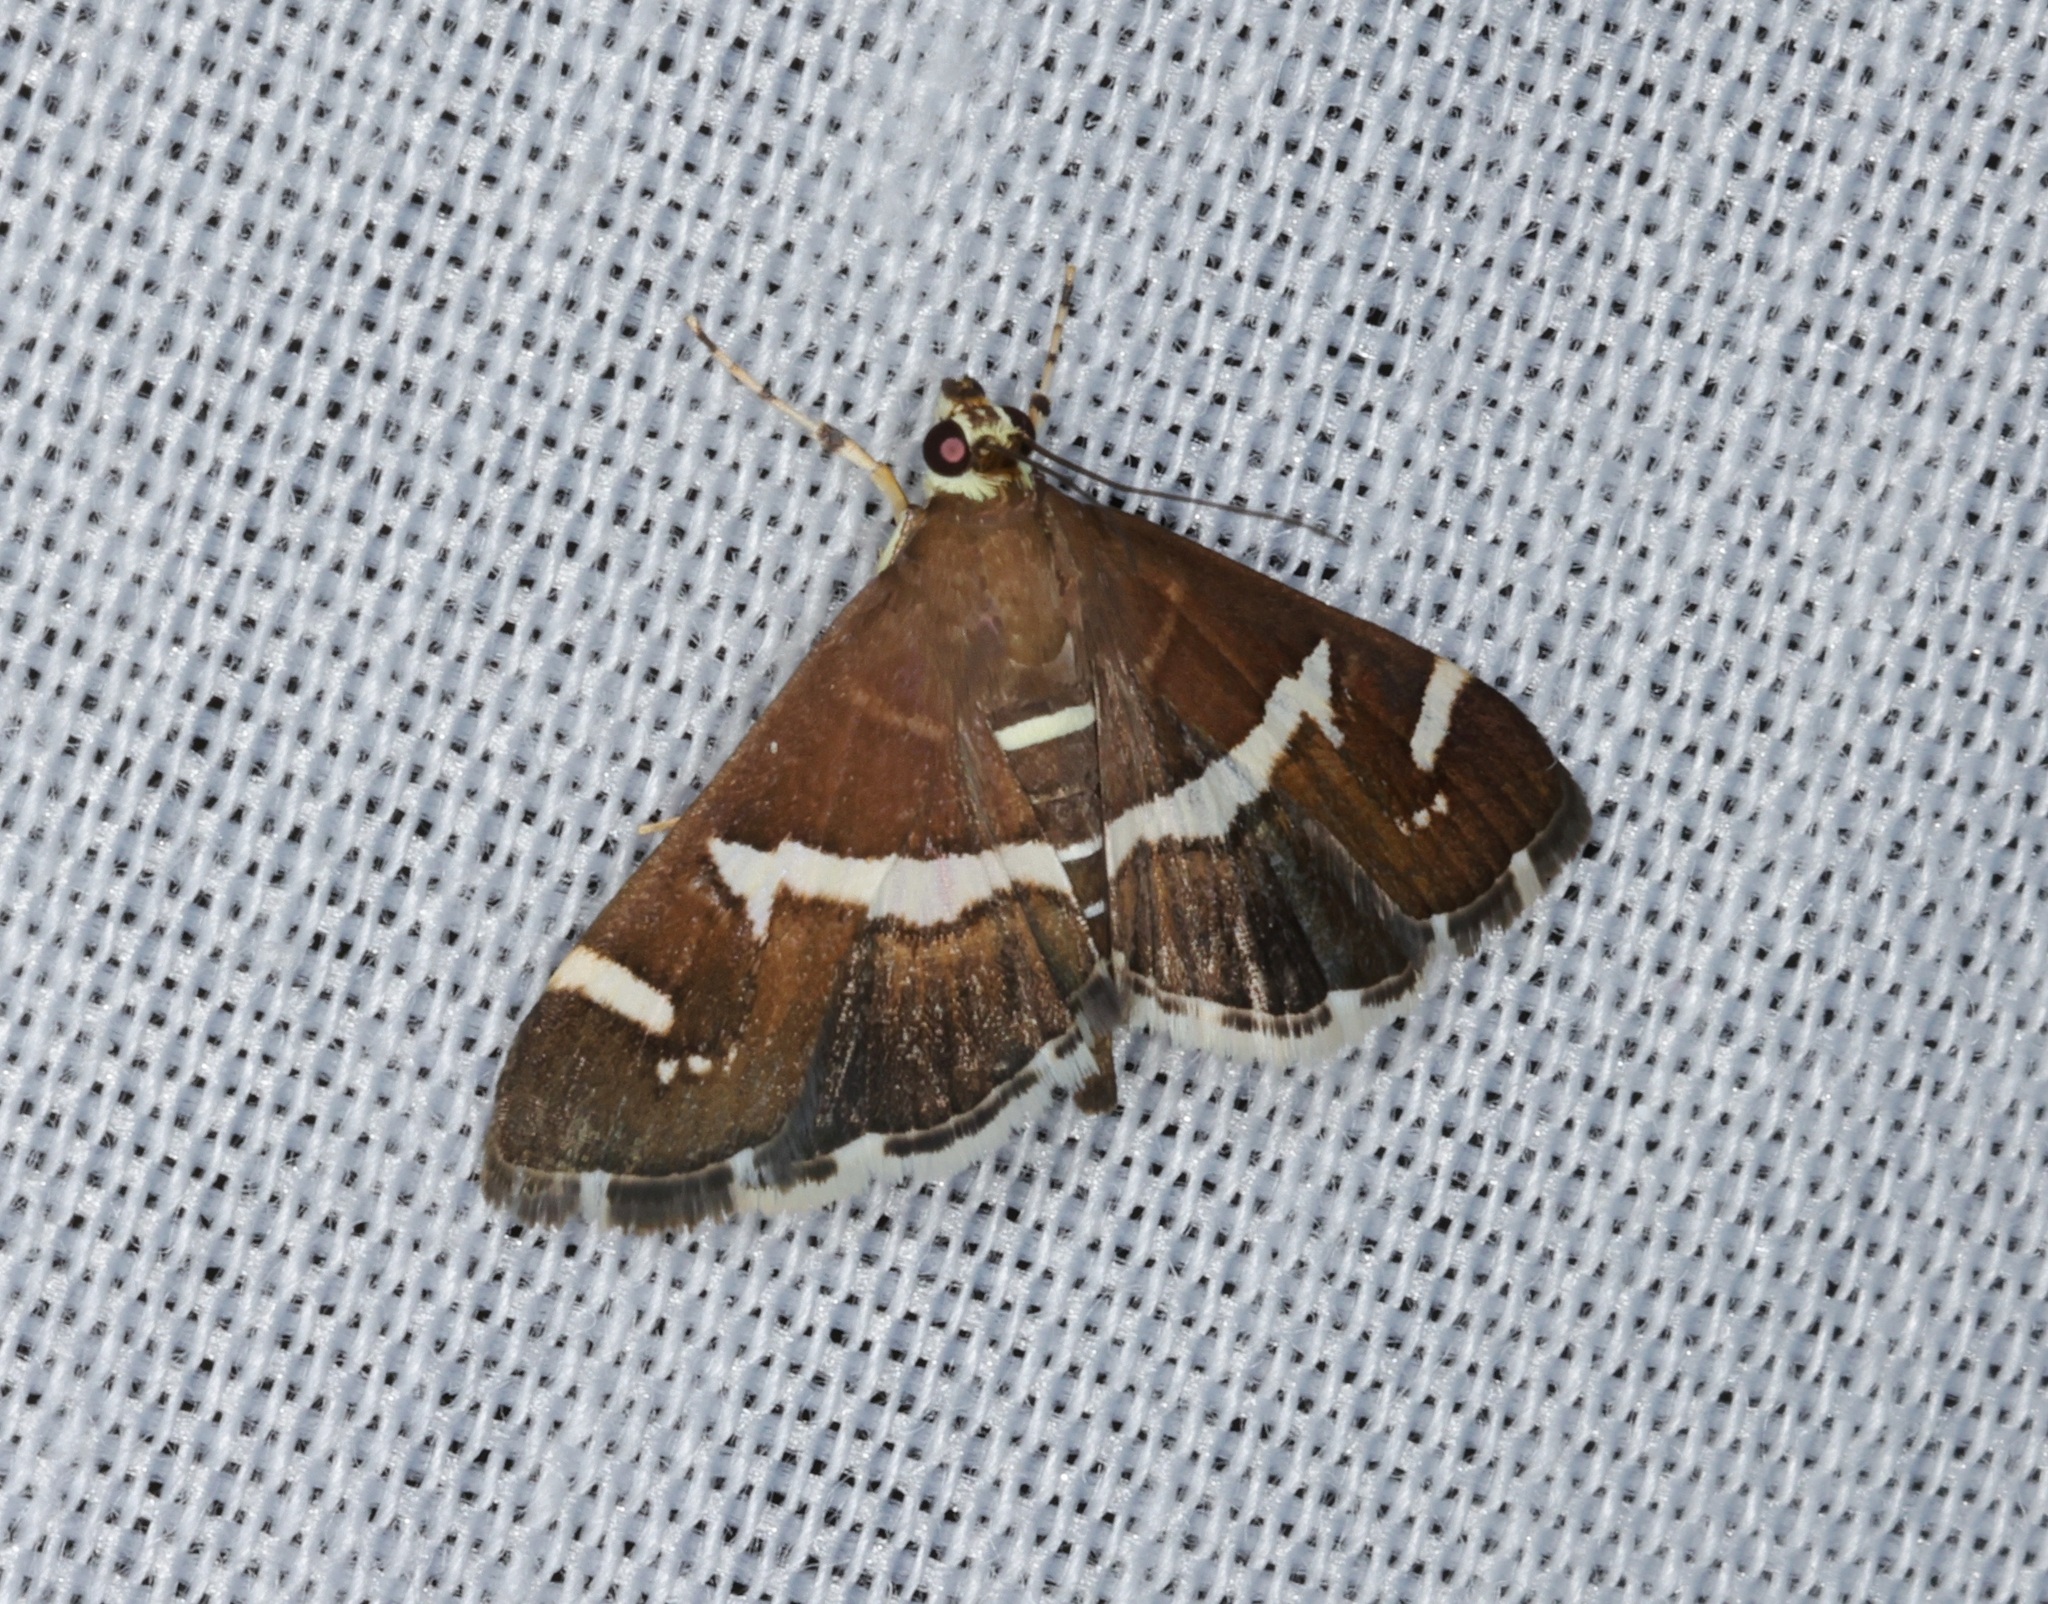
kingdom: Animalia
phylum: Arthropoda
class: Insecta
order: Lepidoptera
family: Crambidae
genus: Spoladea
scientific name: Spoladea recurvalis
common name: Beet webworm moth
